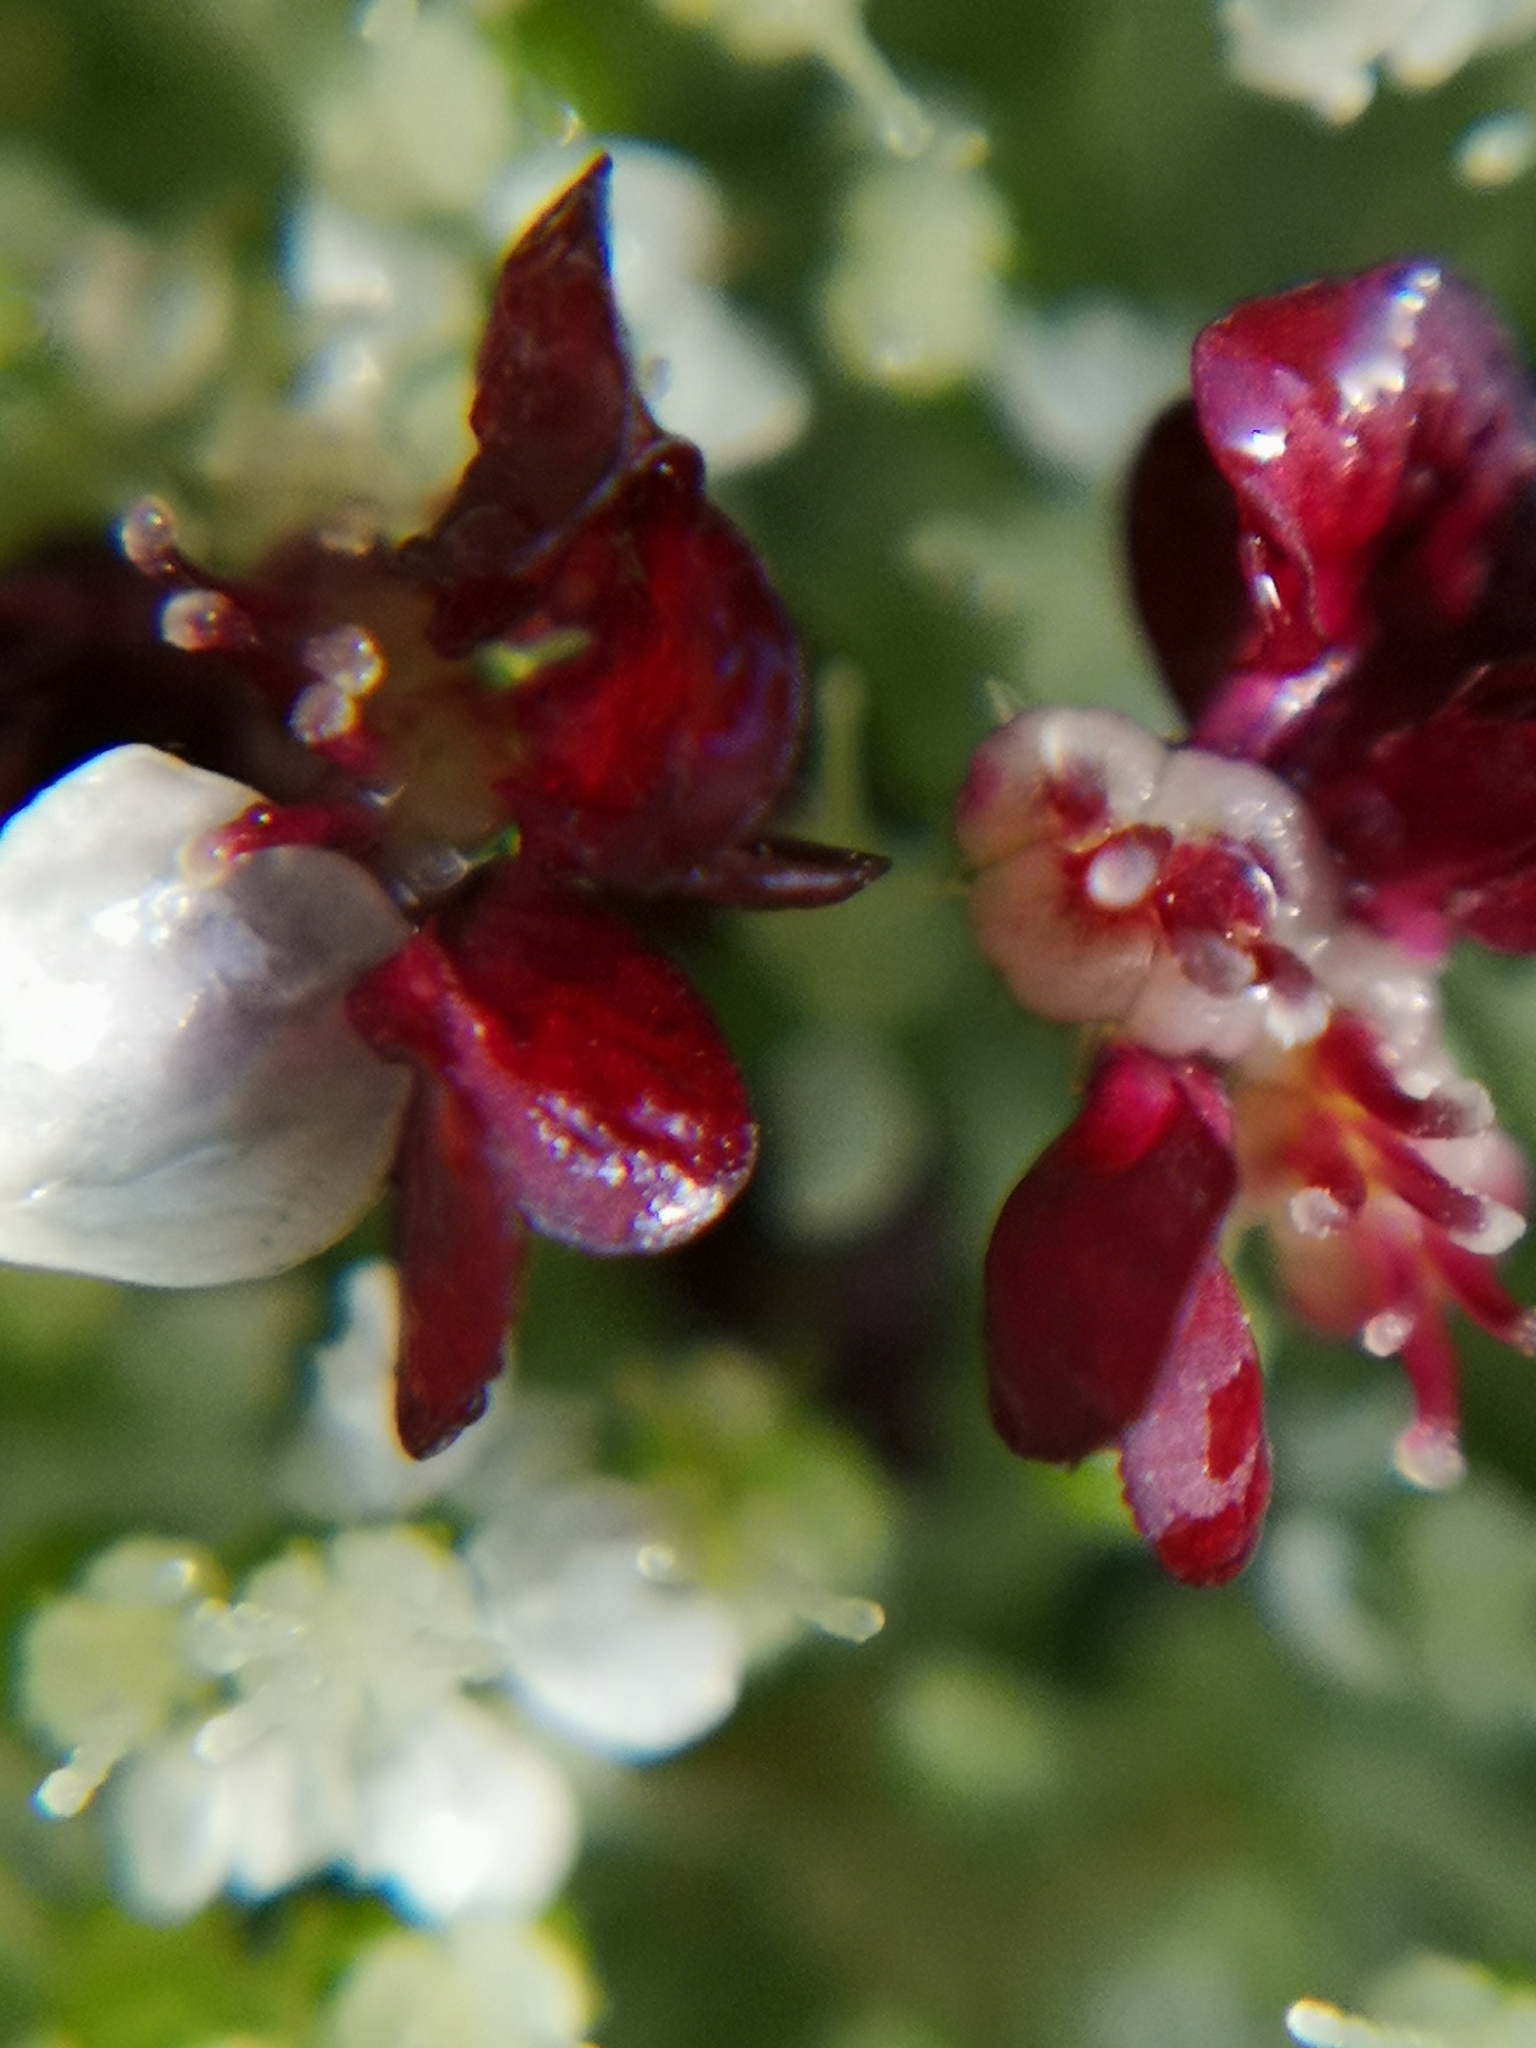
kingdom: Plantae
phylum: Tracheophyta
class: Magnoliopsida
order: Apiales
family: Apiaceae
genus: Daucus
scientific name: Daucus carota
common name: Wild carrot
